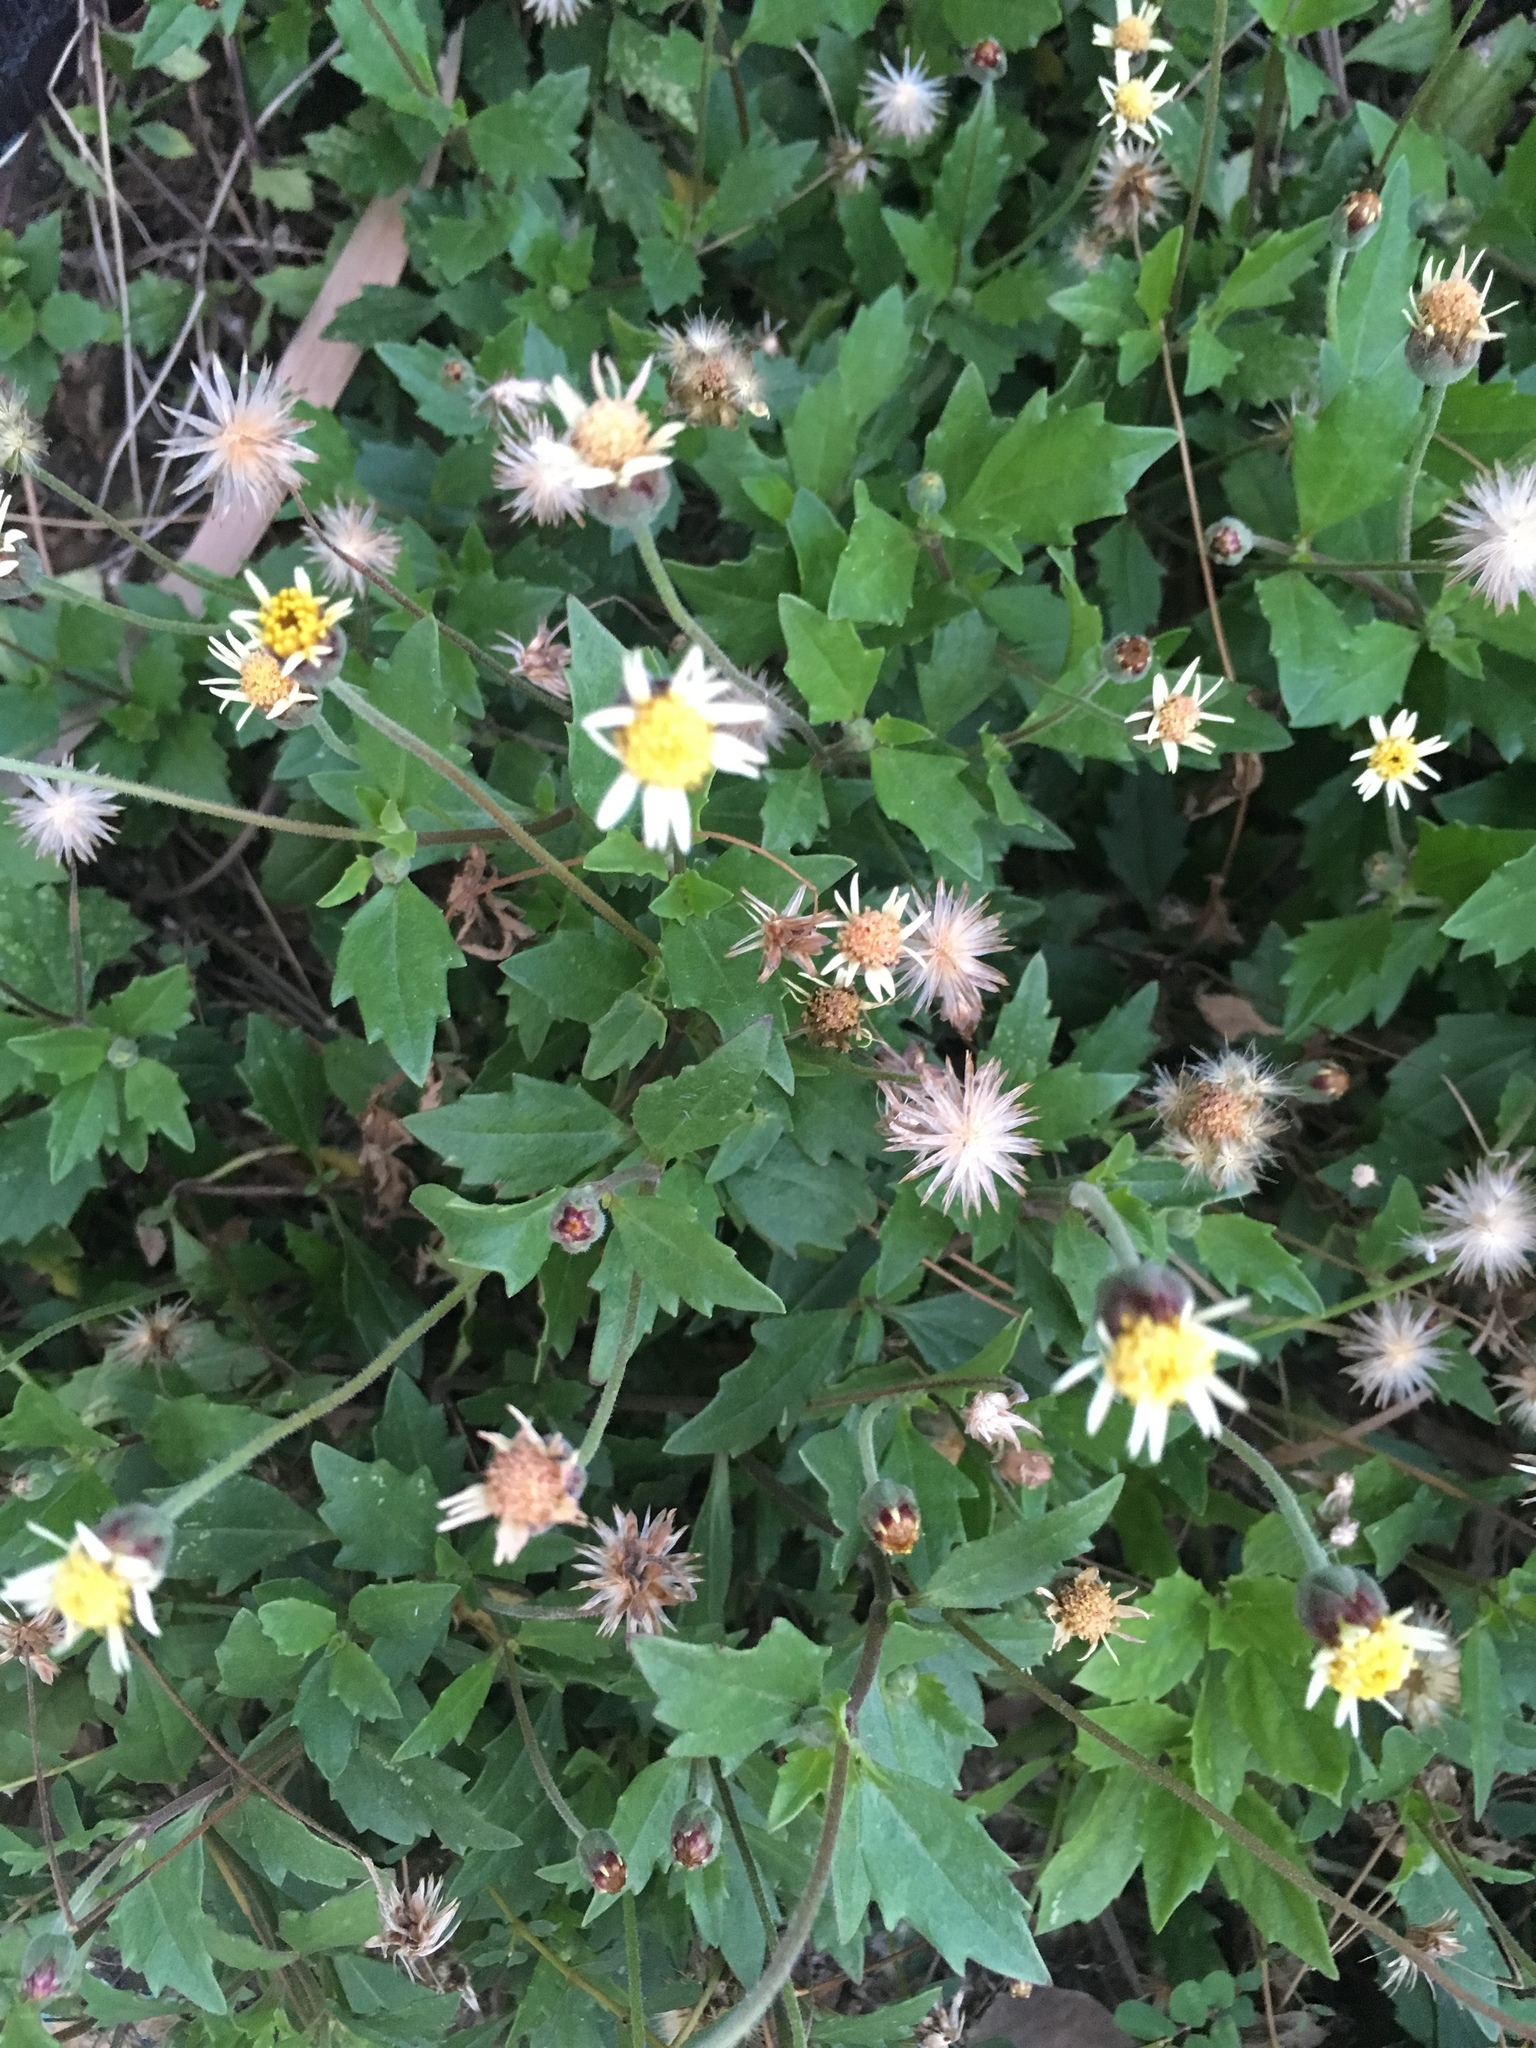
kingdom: Plantae
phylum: Tracheophyta
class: Magnoliopsida
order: Asterales
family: Asteraceae
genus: Tridax
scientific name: Tridax procumbens
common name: Coatbuttons
